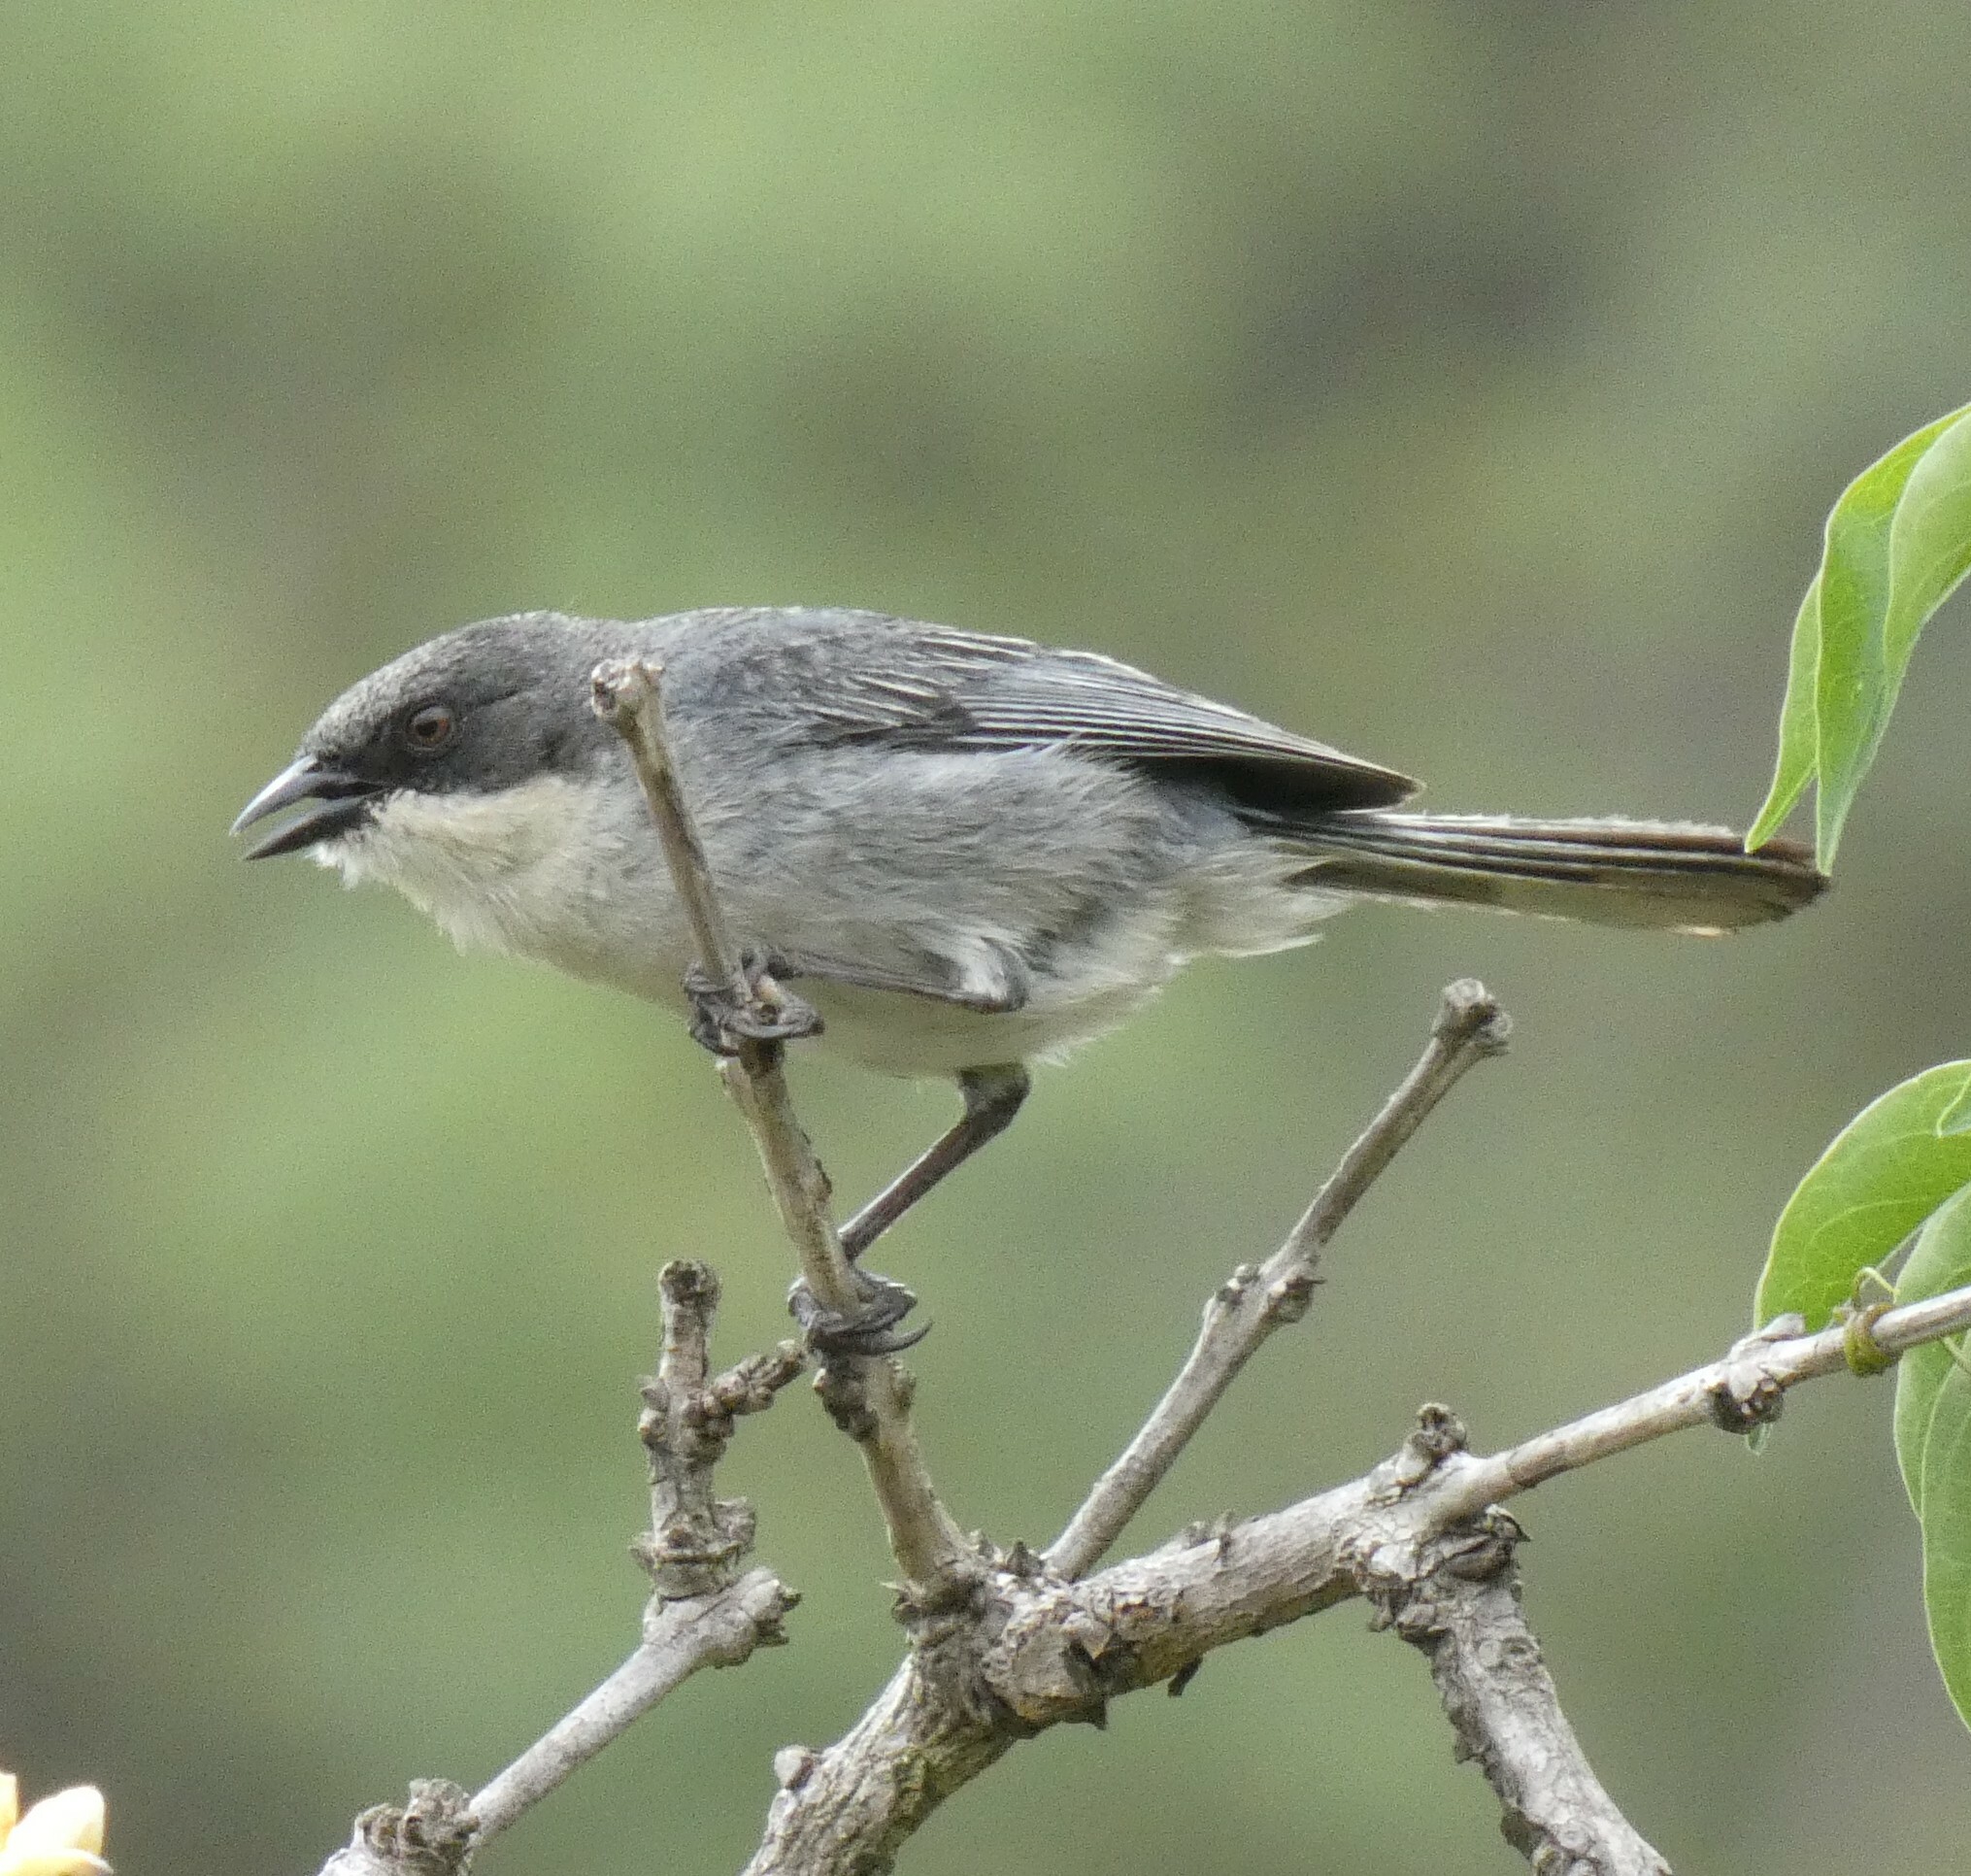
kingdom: Animalia
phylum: Chordata
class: Aves
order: Passeriformes
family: Thraupidae
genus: Microspingus
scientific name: Microspingus cinereus
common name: Cinereous warbling-finch
